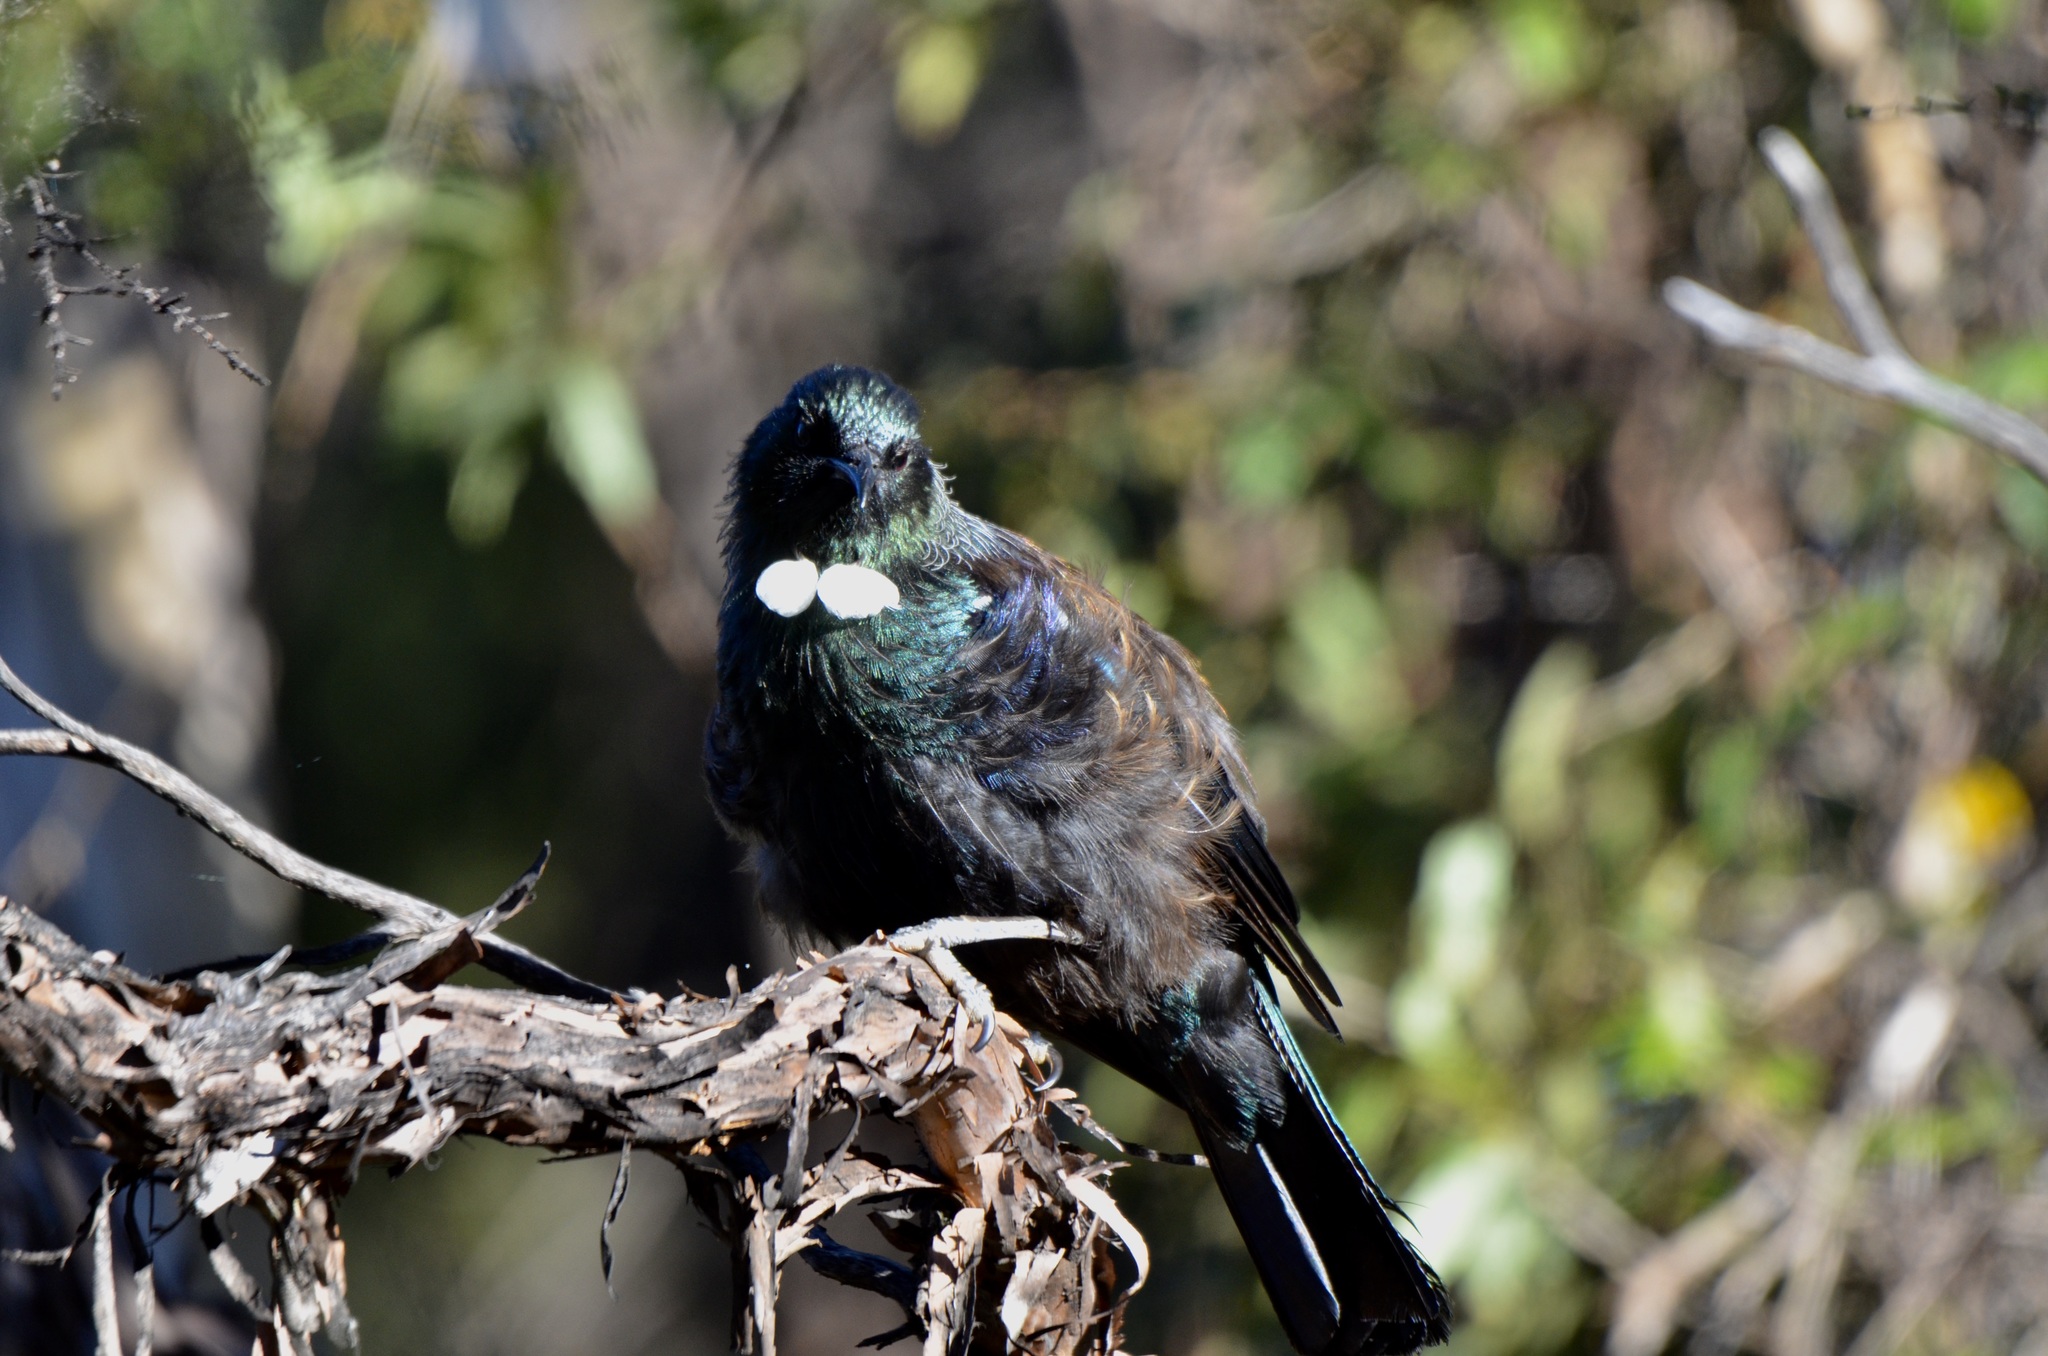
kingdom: Animalia
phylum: Chordata
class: Aves
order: Passeriformes
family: Meliphagidae
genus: Prosthemadera
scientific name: Prosthemadera novaeseelandiae
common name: Tui
